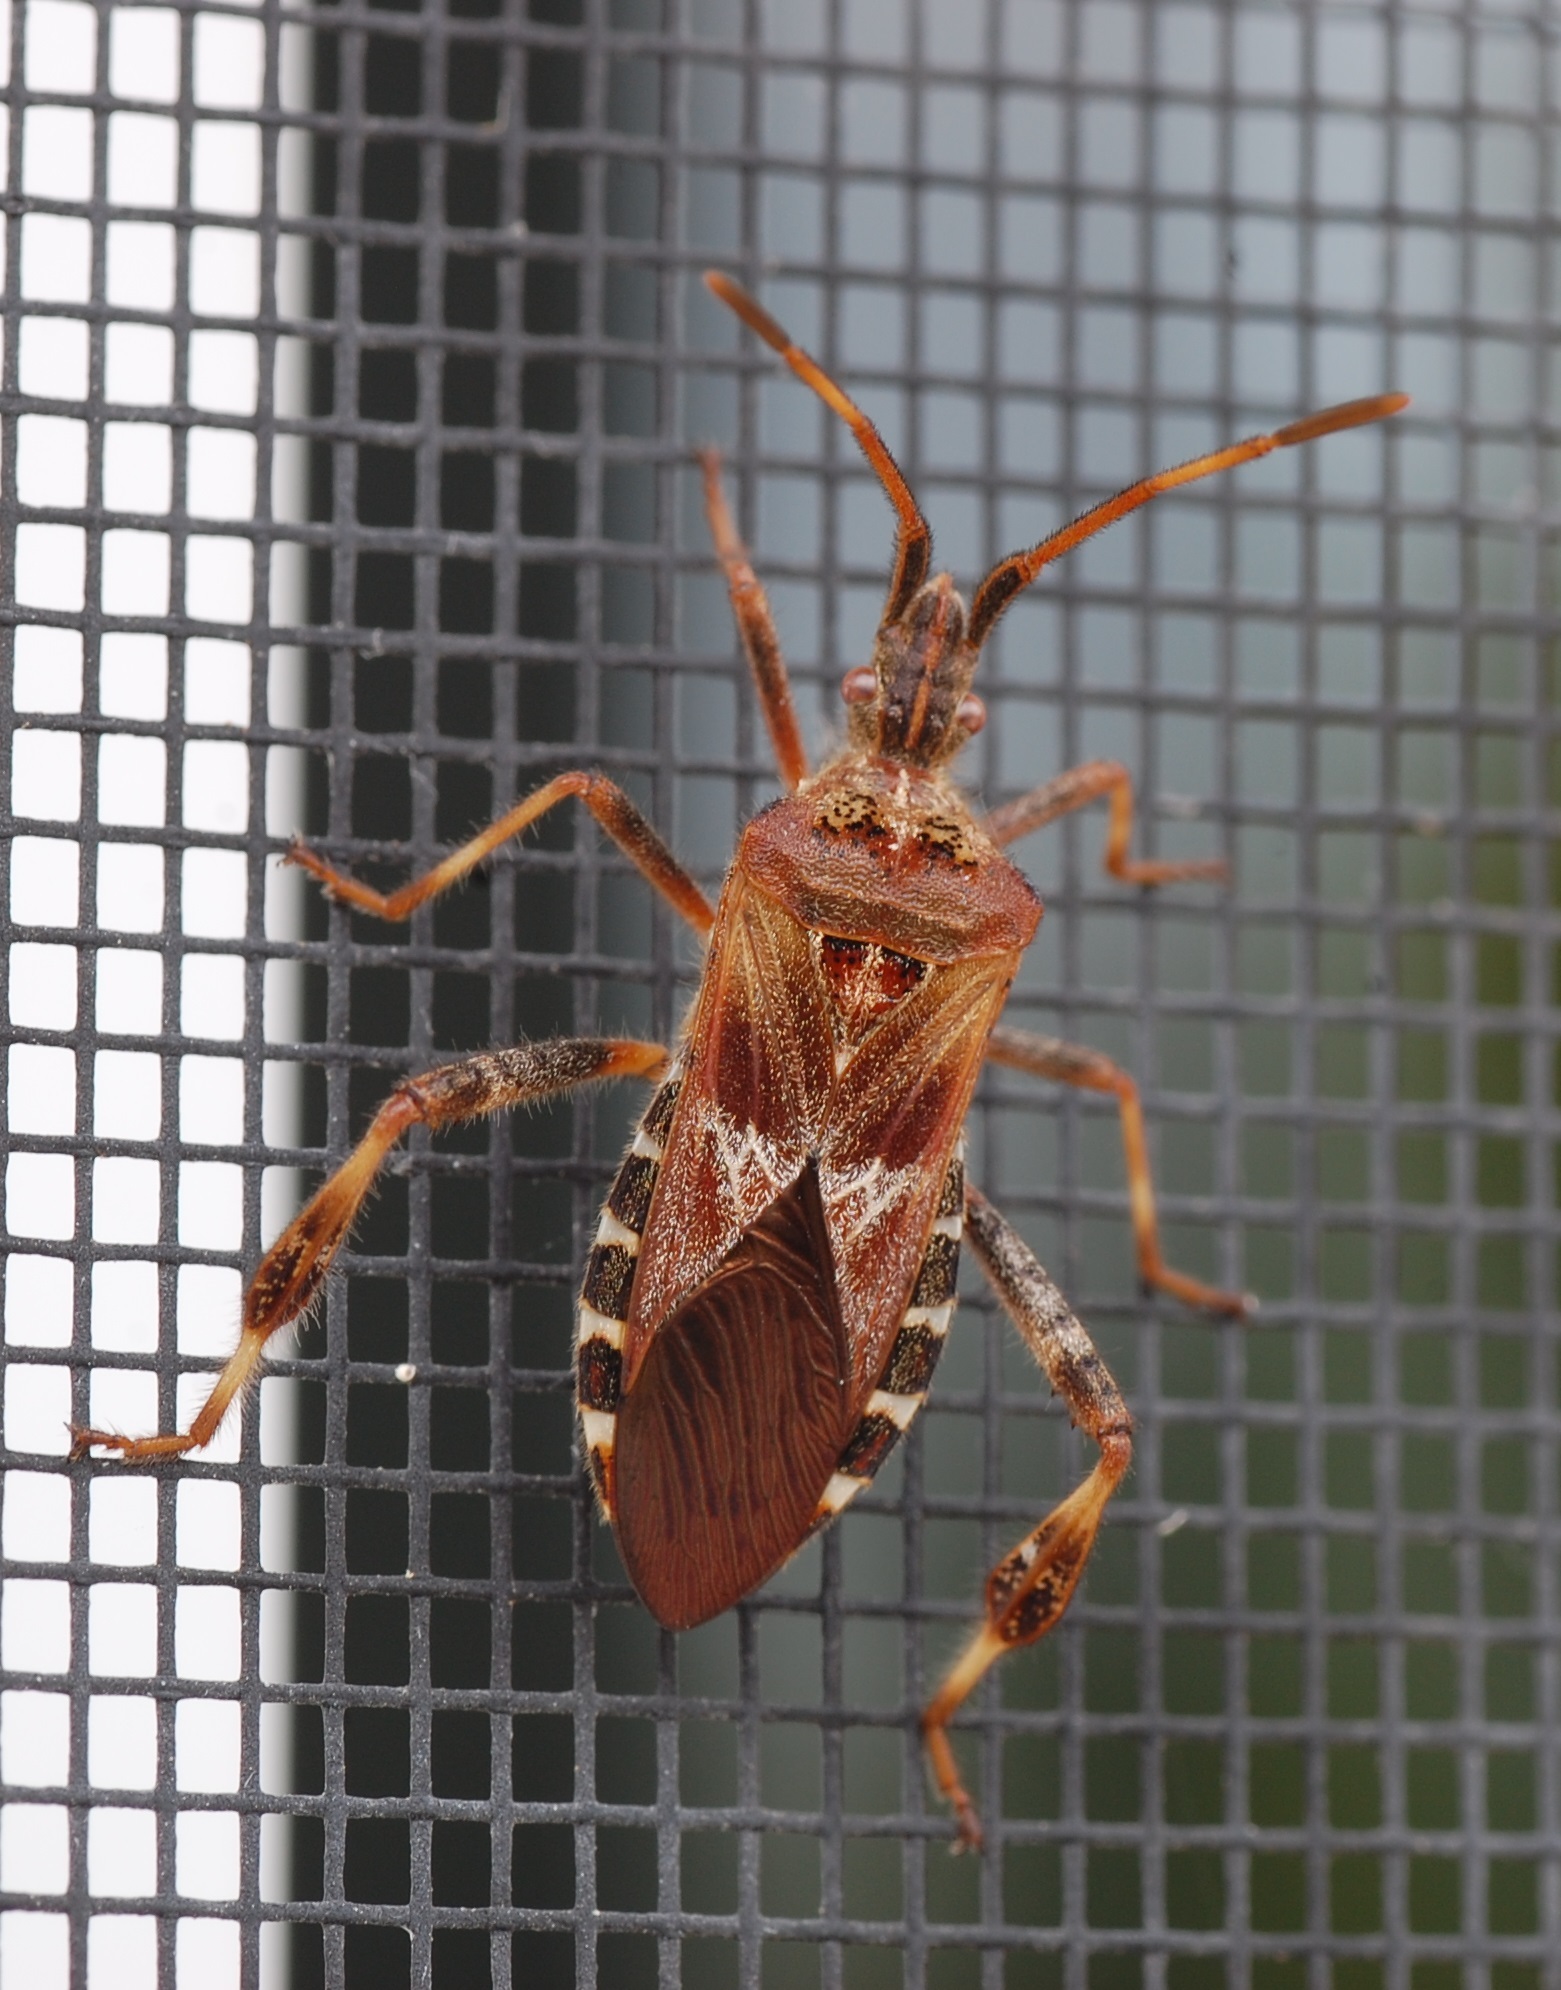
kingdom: Animalia
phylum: Arthropoda
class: Insecta
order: Hemiptera
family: Coreidae
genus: Leptoglossus
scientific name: Leptoglossus occidentalis
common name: Western conifer-seed bug
